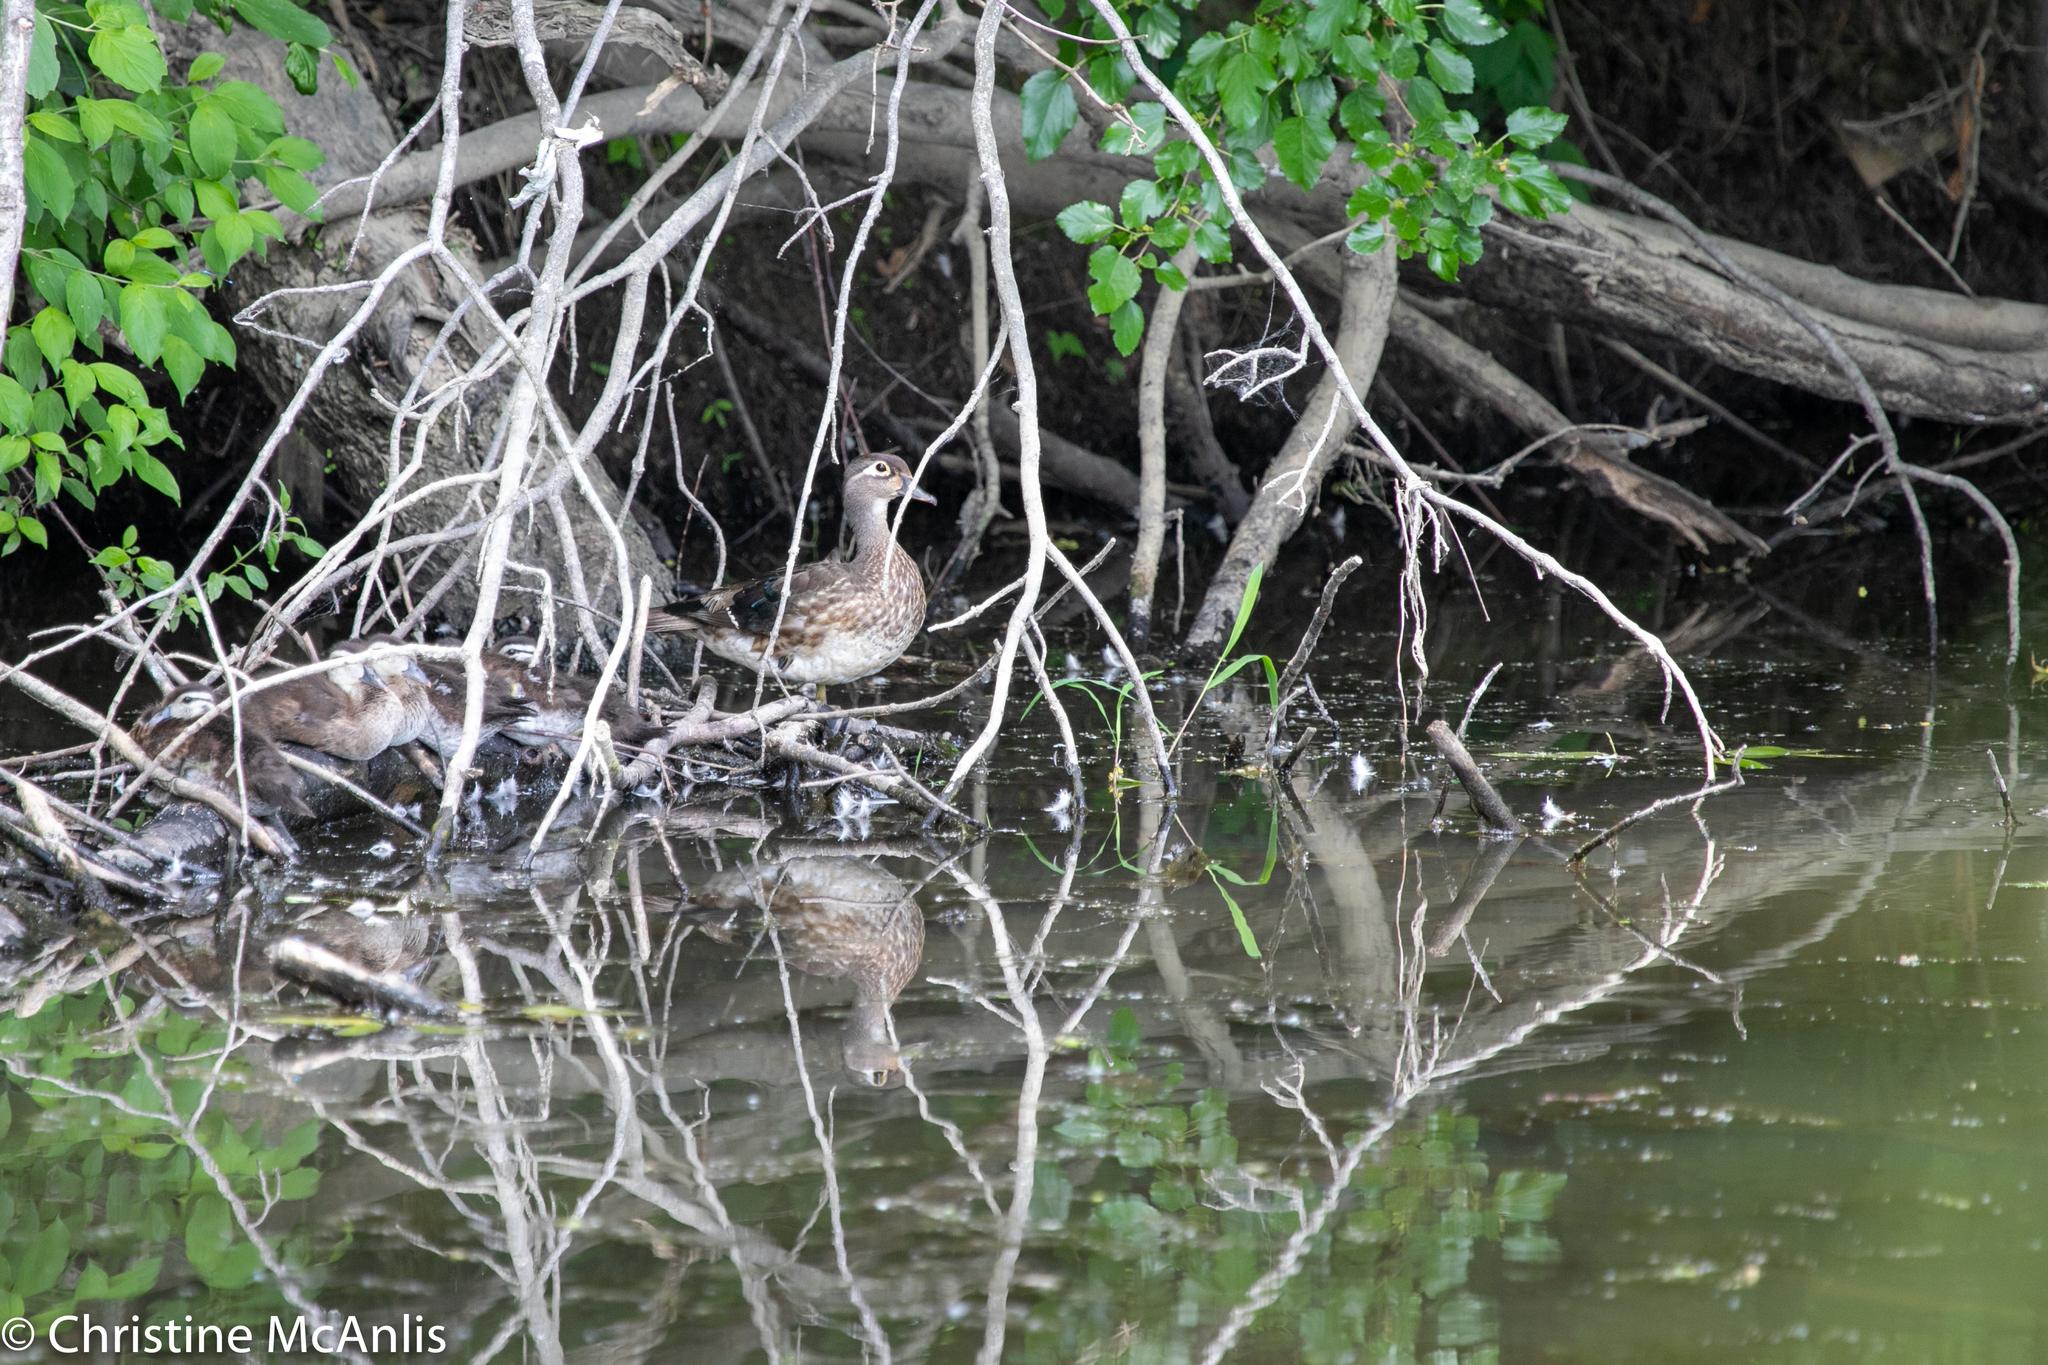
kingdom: Animalia
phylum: Chordata
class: Aves
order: Anseriformes
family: Anatidae
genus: Aix
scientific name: Aix sponsa
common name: Wood duck
